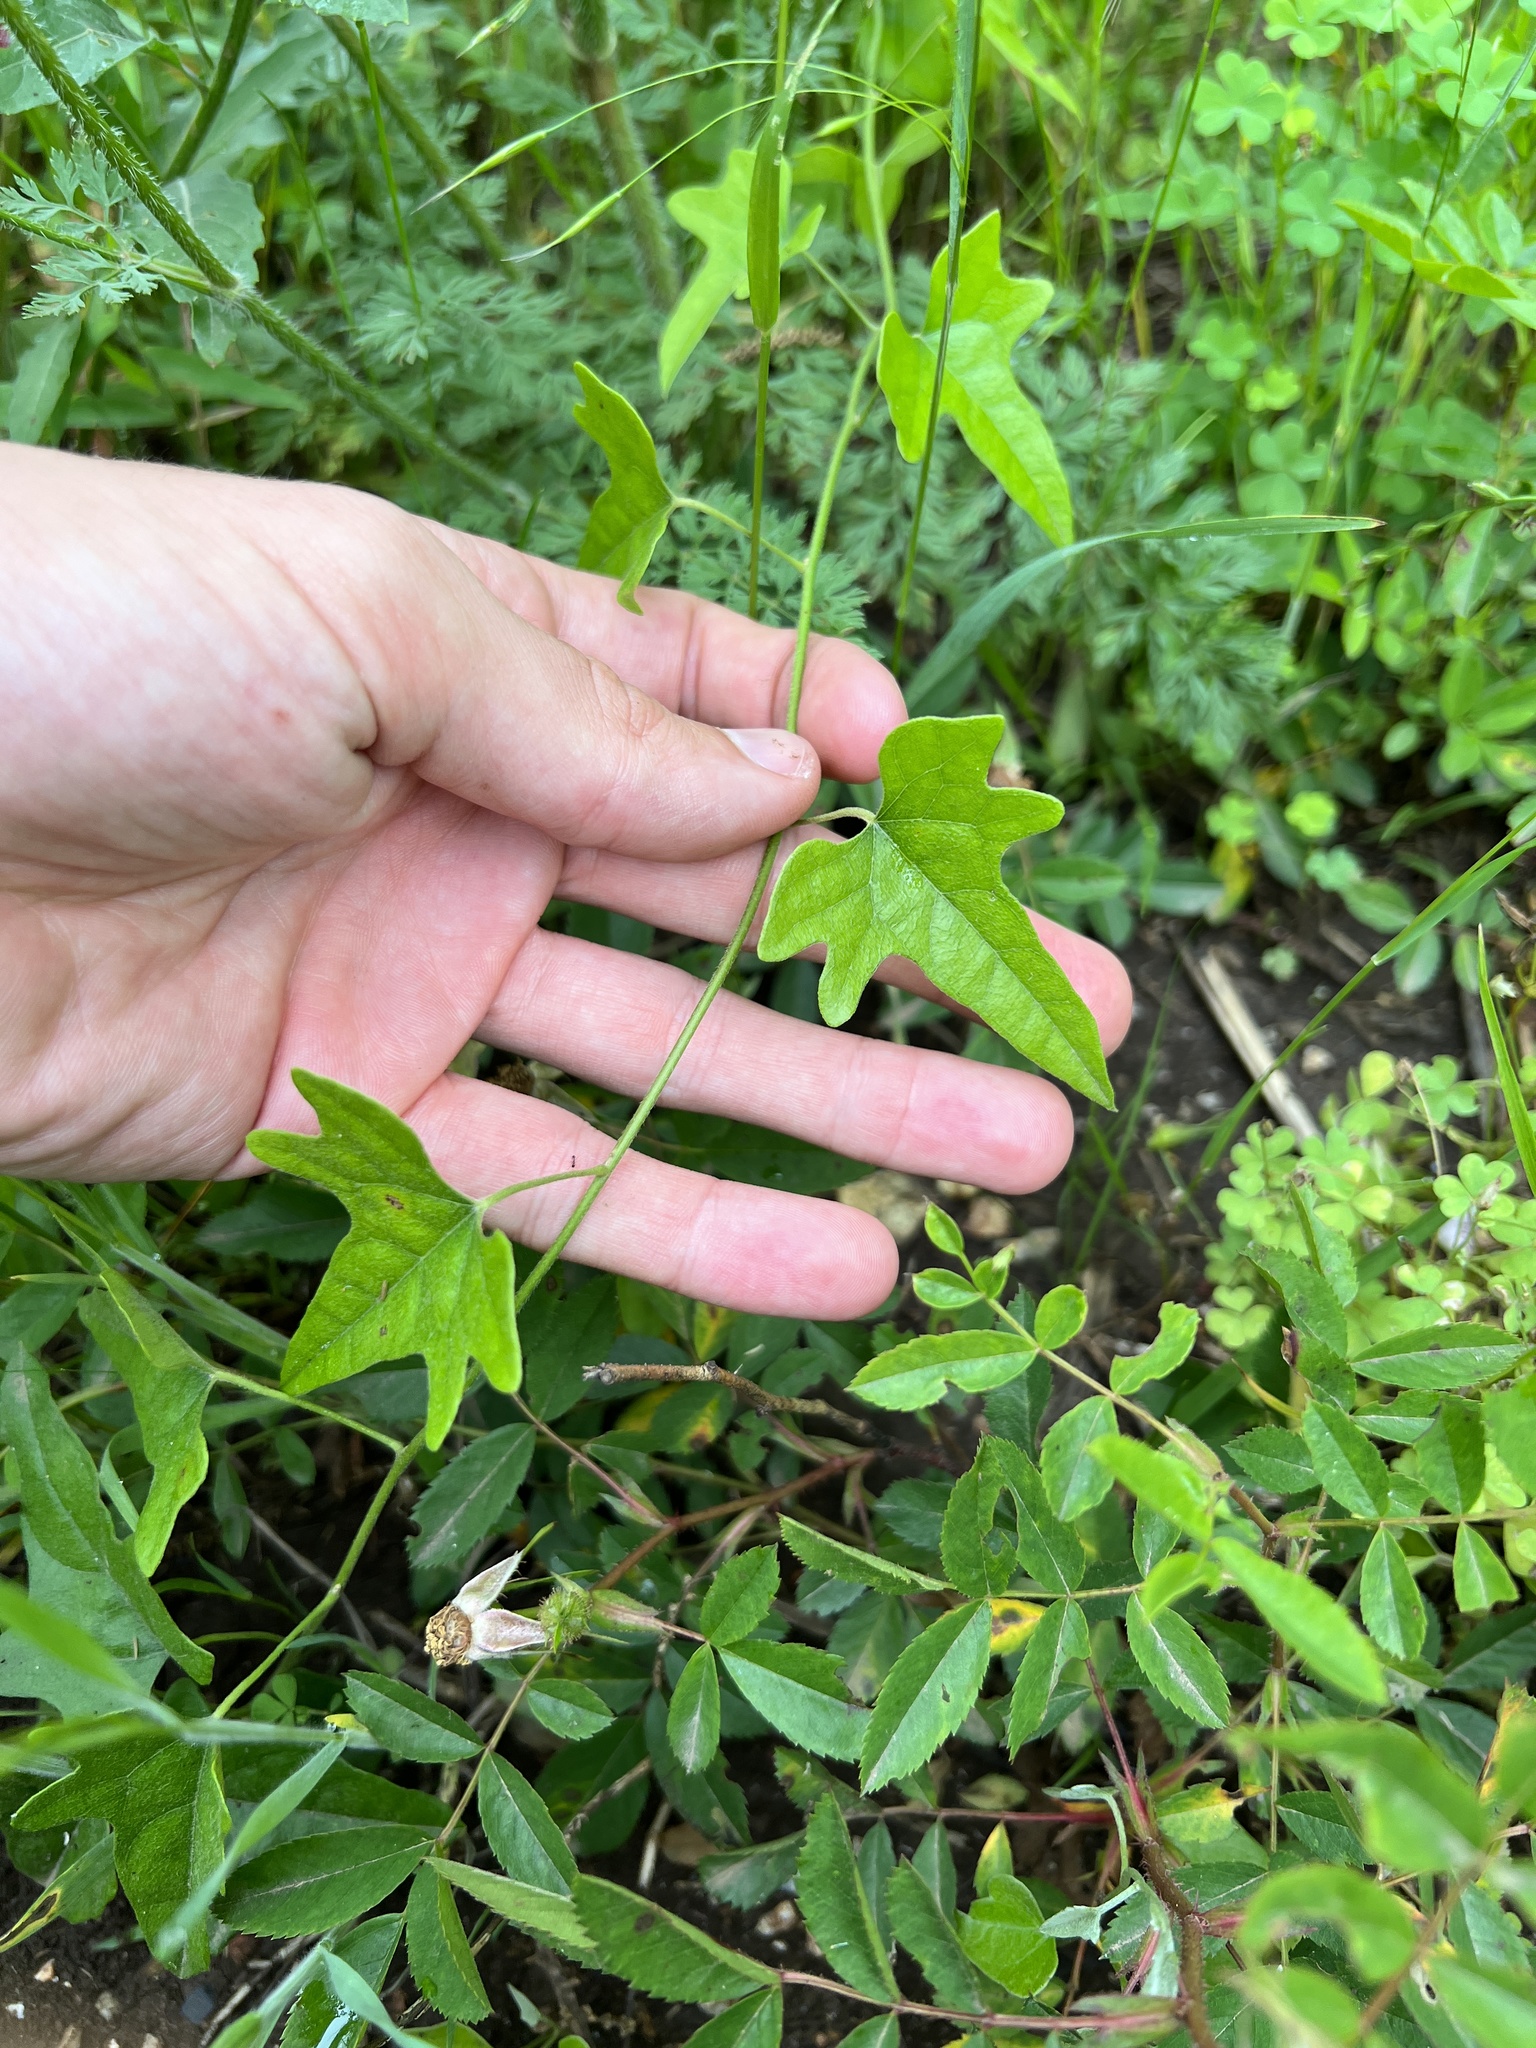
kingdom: Plantae
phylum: Tracheophyta
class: Magnoliopsida
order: Ranunculales
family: Menispermaceae
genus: Cocculus
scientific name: Cocculus carolinus
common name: Carolina moonseed
